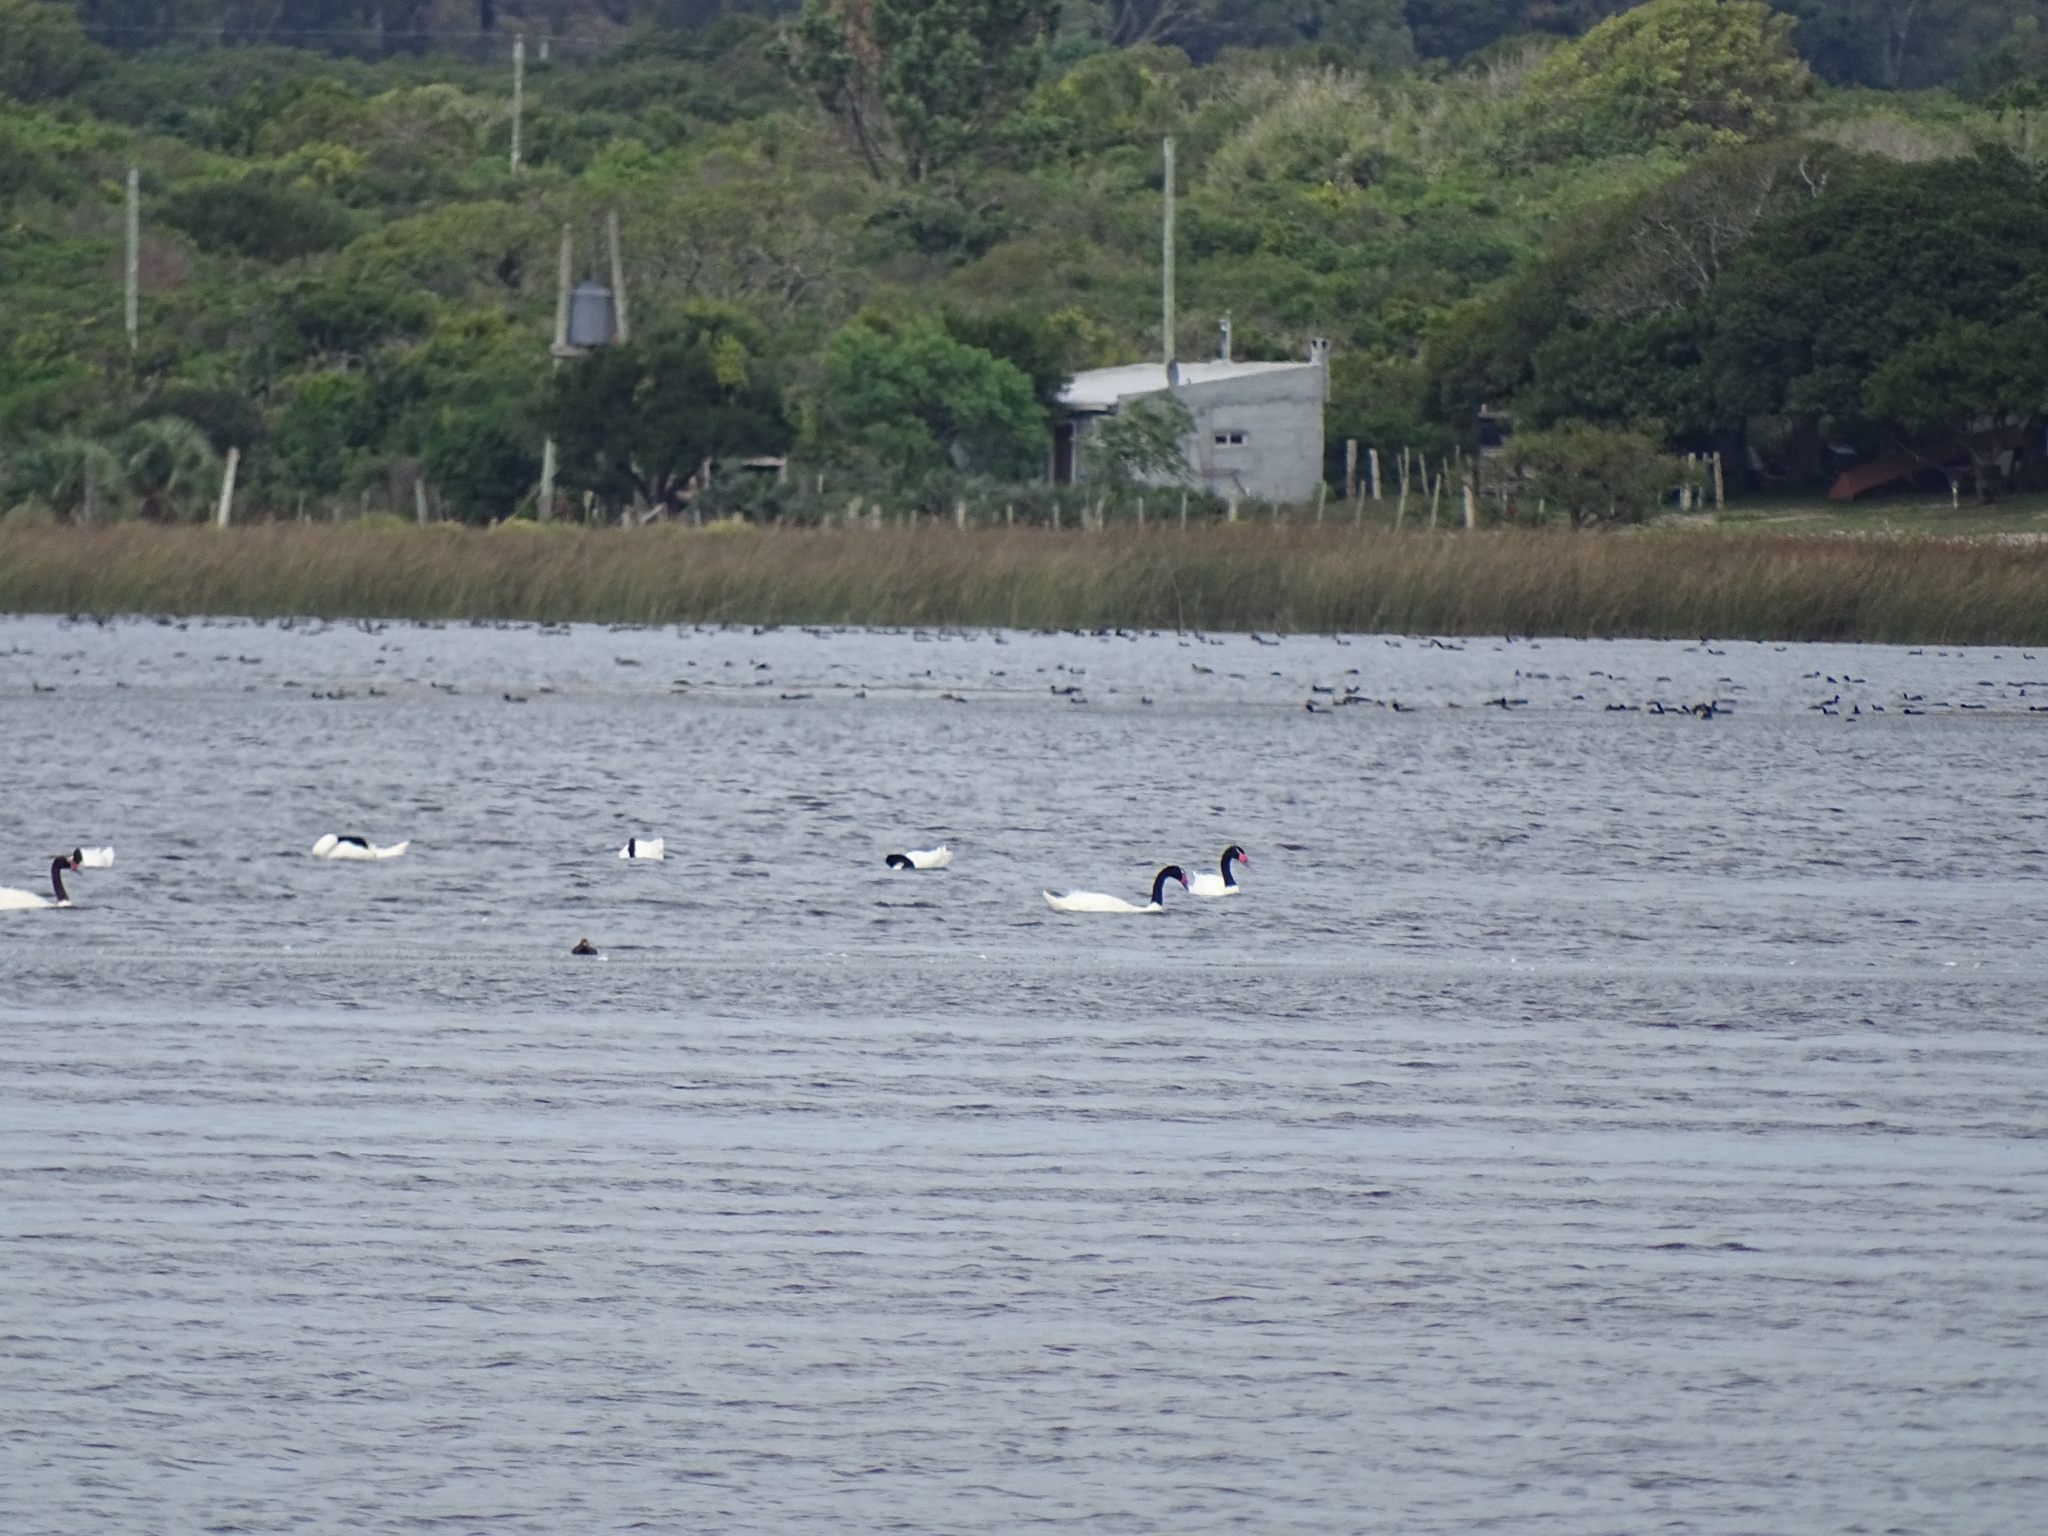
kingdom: Animalia
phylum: Chordata
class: Aves
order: Anseriformes
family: Anatidae
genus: Cygnus
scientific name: Cygnus melancoryphus
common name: Black-necked swan
